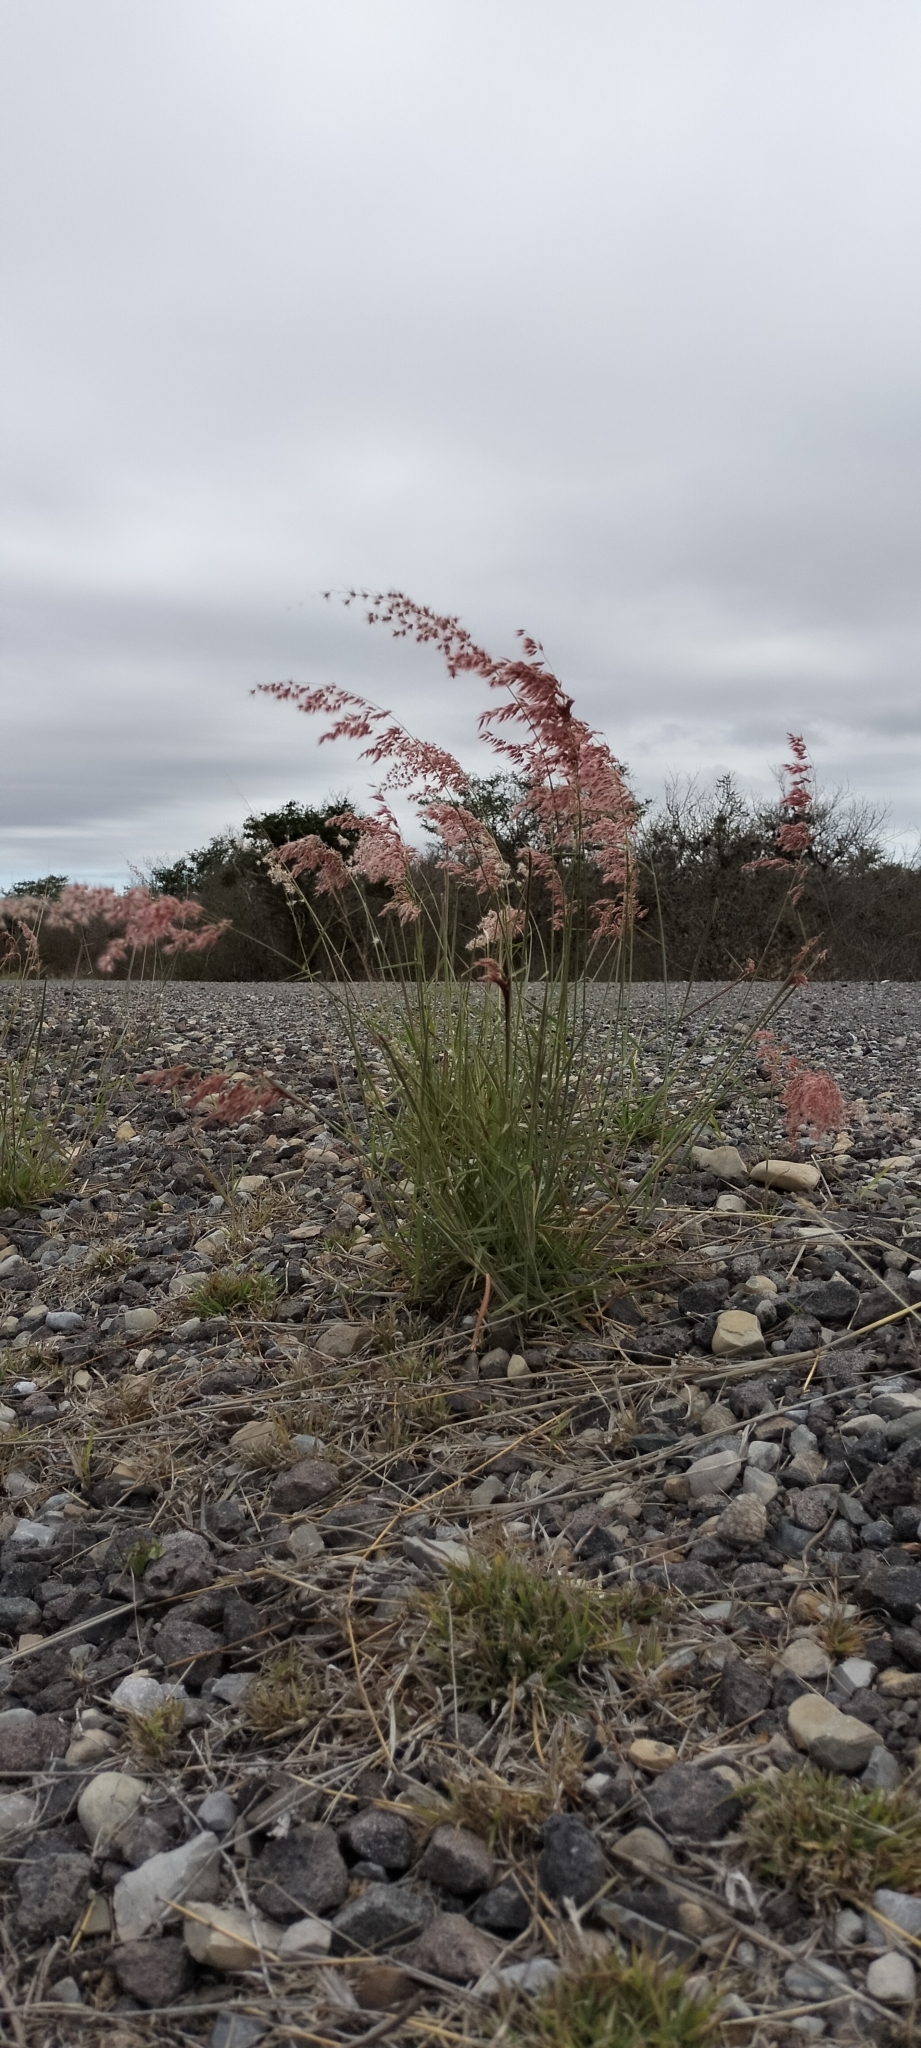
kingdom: Plantae
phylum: Tracheophyta
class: Liliopsida
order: Poales
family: Poaceae
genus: Melinis
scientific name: Melinis repens
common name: Rose natal grass
